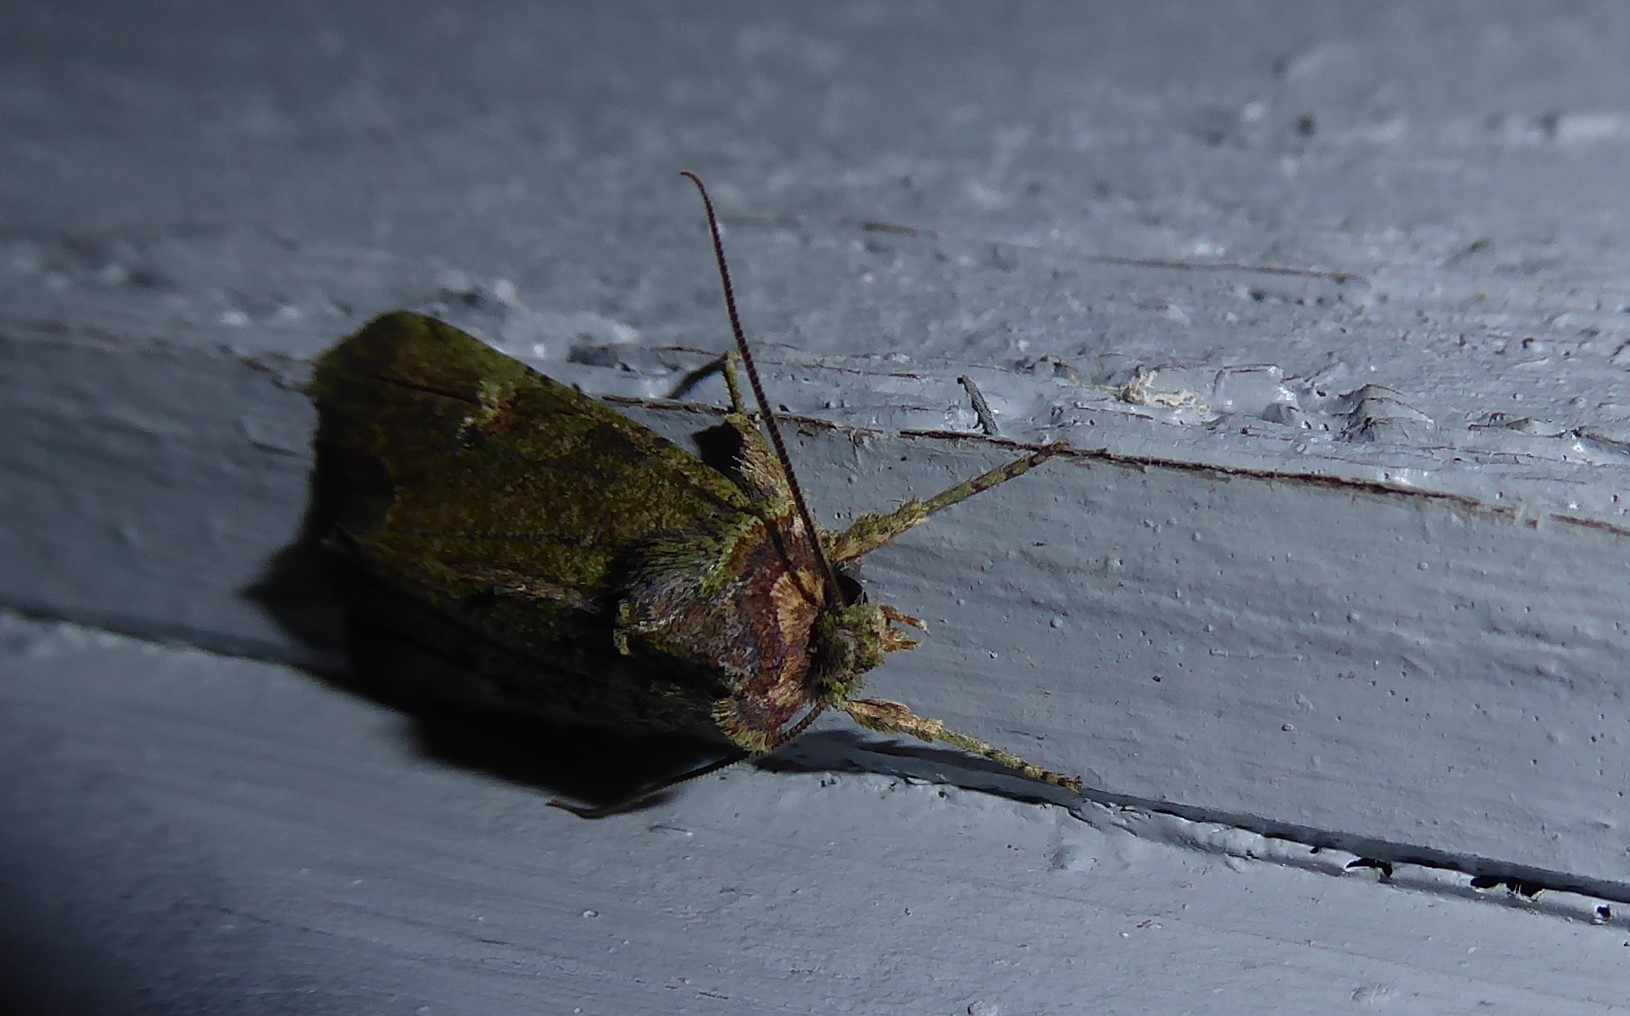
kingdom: Animalia
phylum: Arthropoda
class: Insecta
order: Lepidoptera
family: Noctuidae
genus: Meterana
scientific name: Meterana levis
